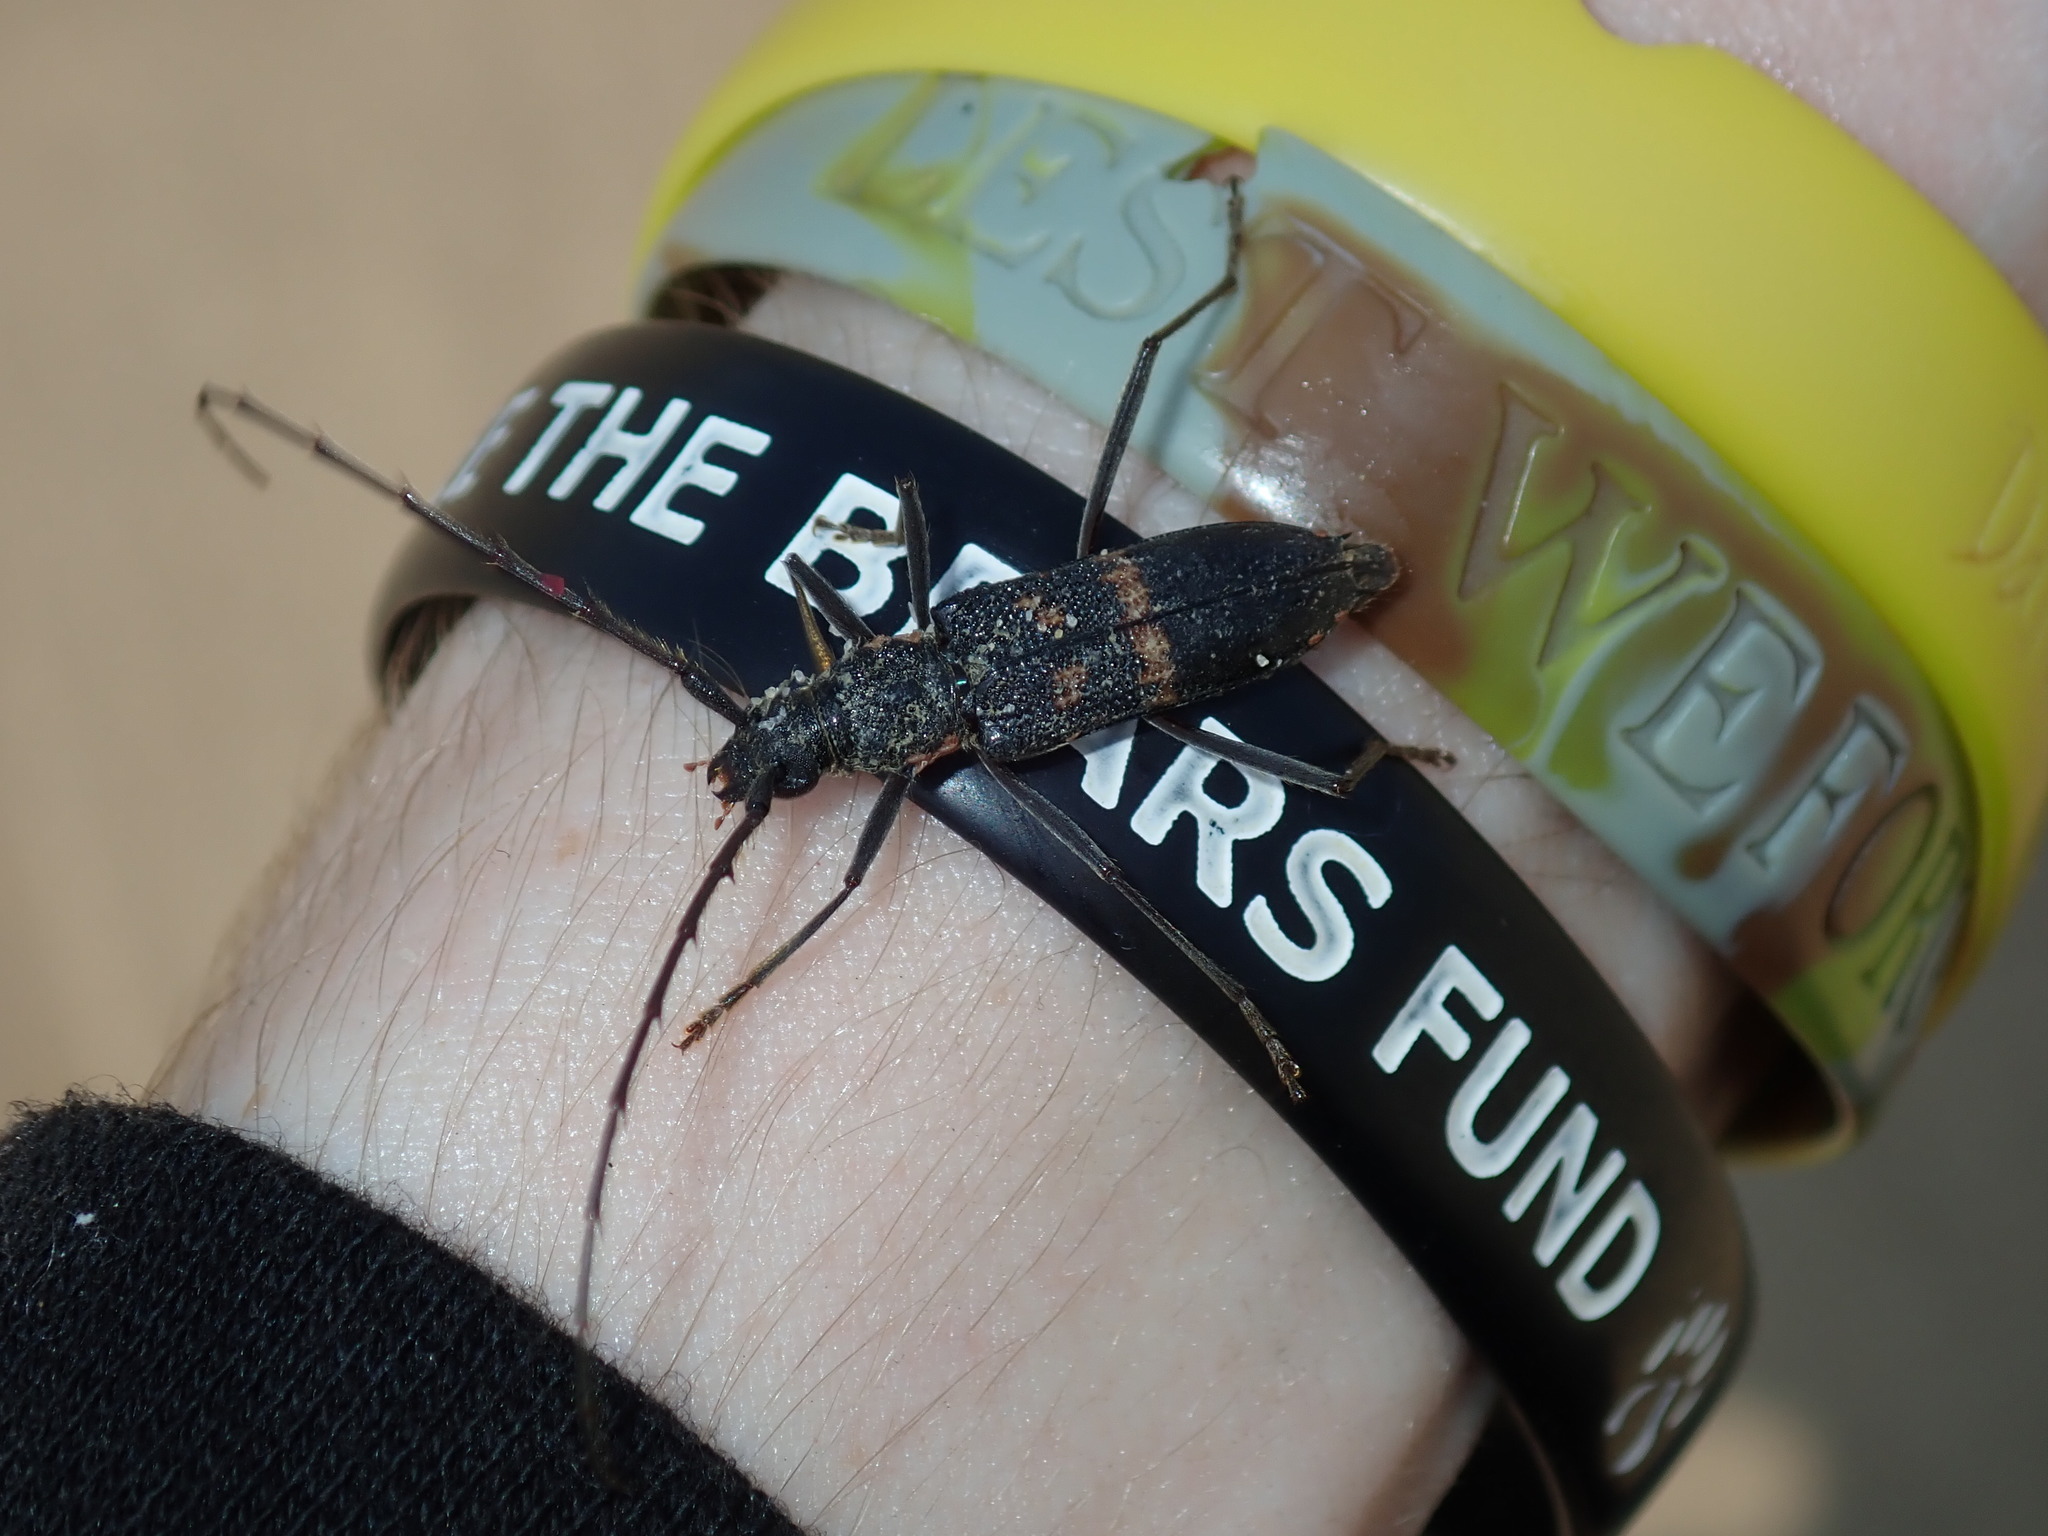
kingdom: Animalia
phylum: Arthropoda
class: Insecta
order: Coleoptera
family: Cerambycidae
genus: Phoracantha
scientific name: Phoracantha punctata
